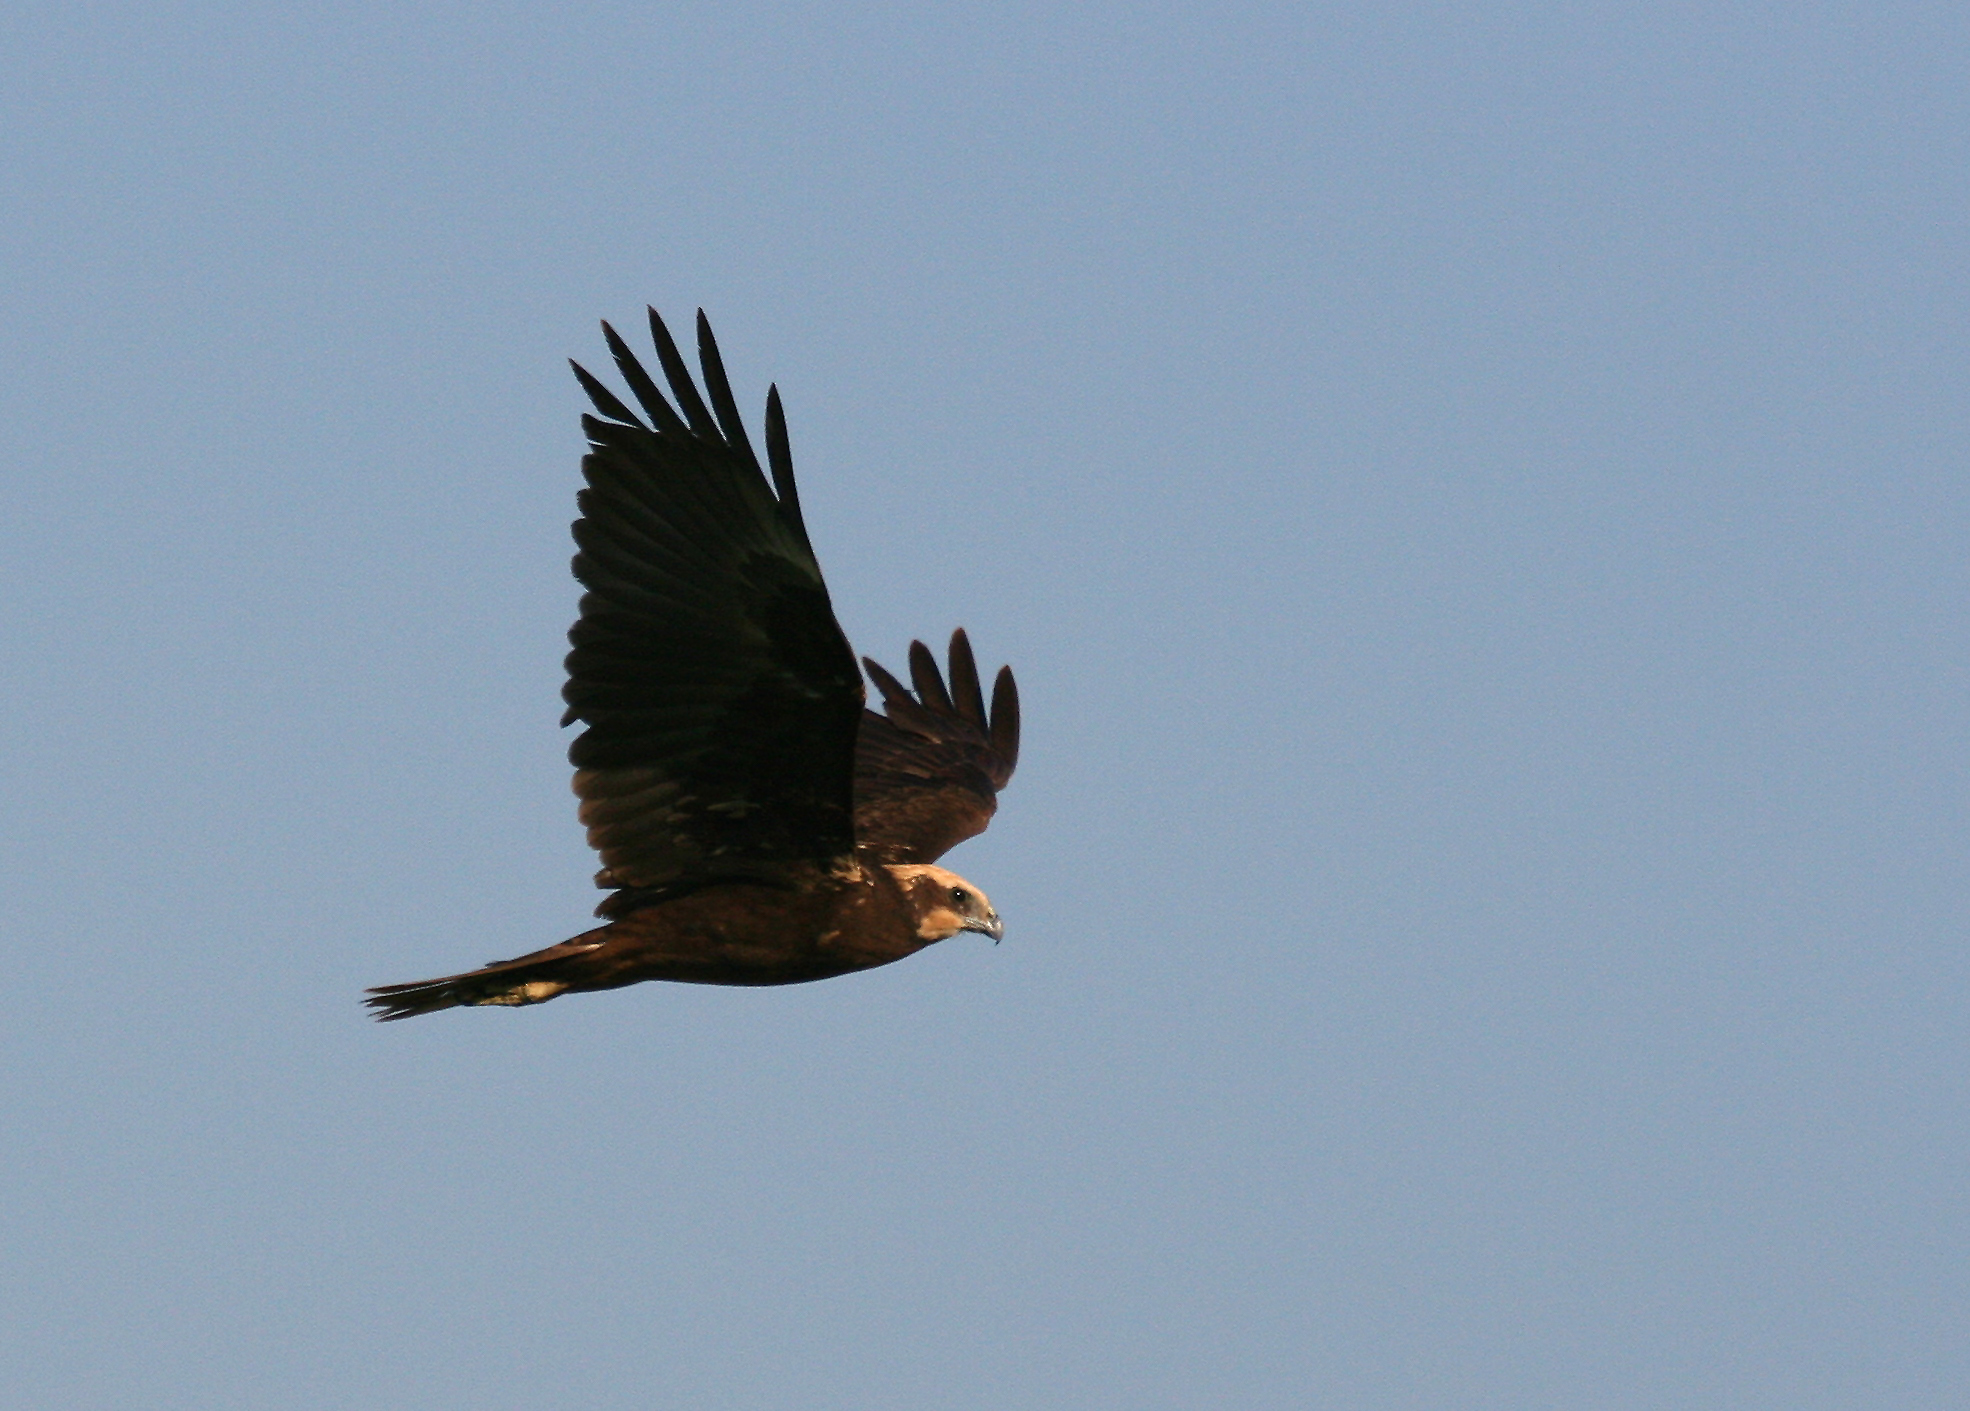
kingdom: Animalia
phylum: Chordata
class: Aves
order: Accipitriformes
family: Accipitridae
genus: Circus
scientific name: Circus aeruginosus
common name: Western marsh harrier
